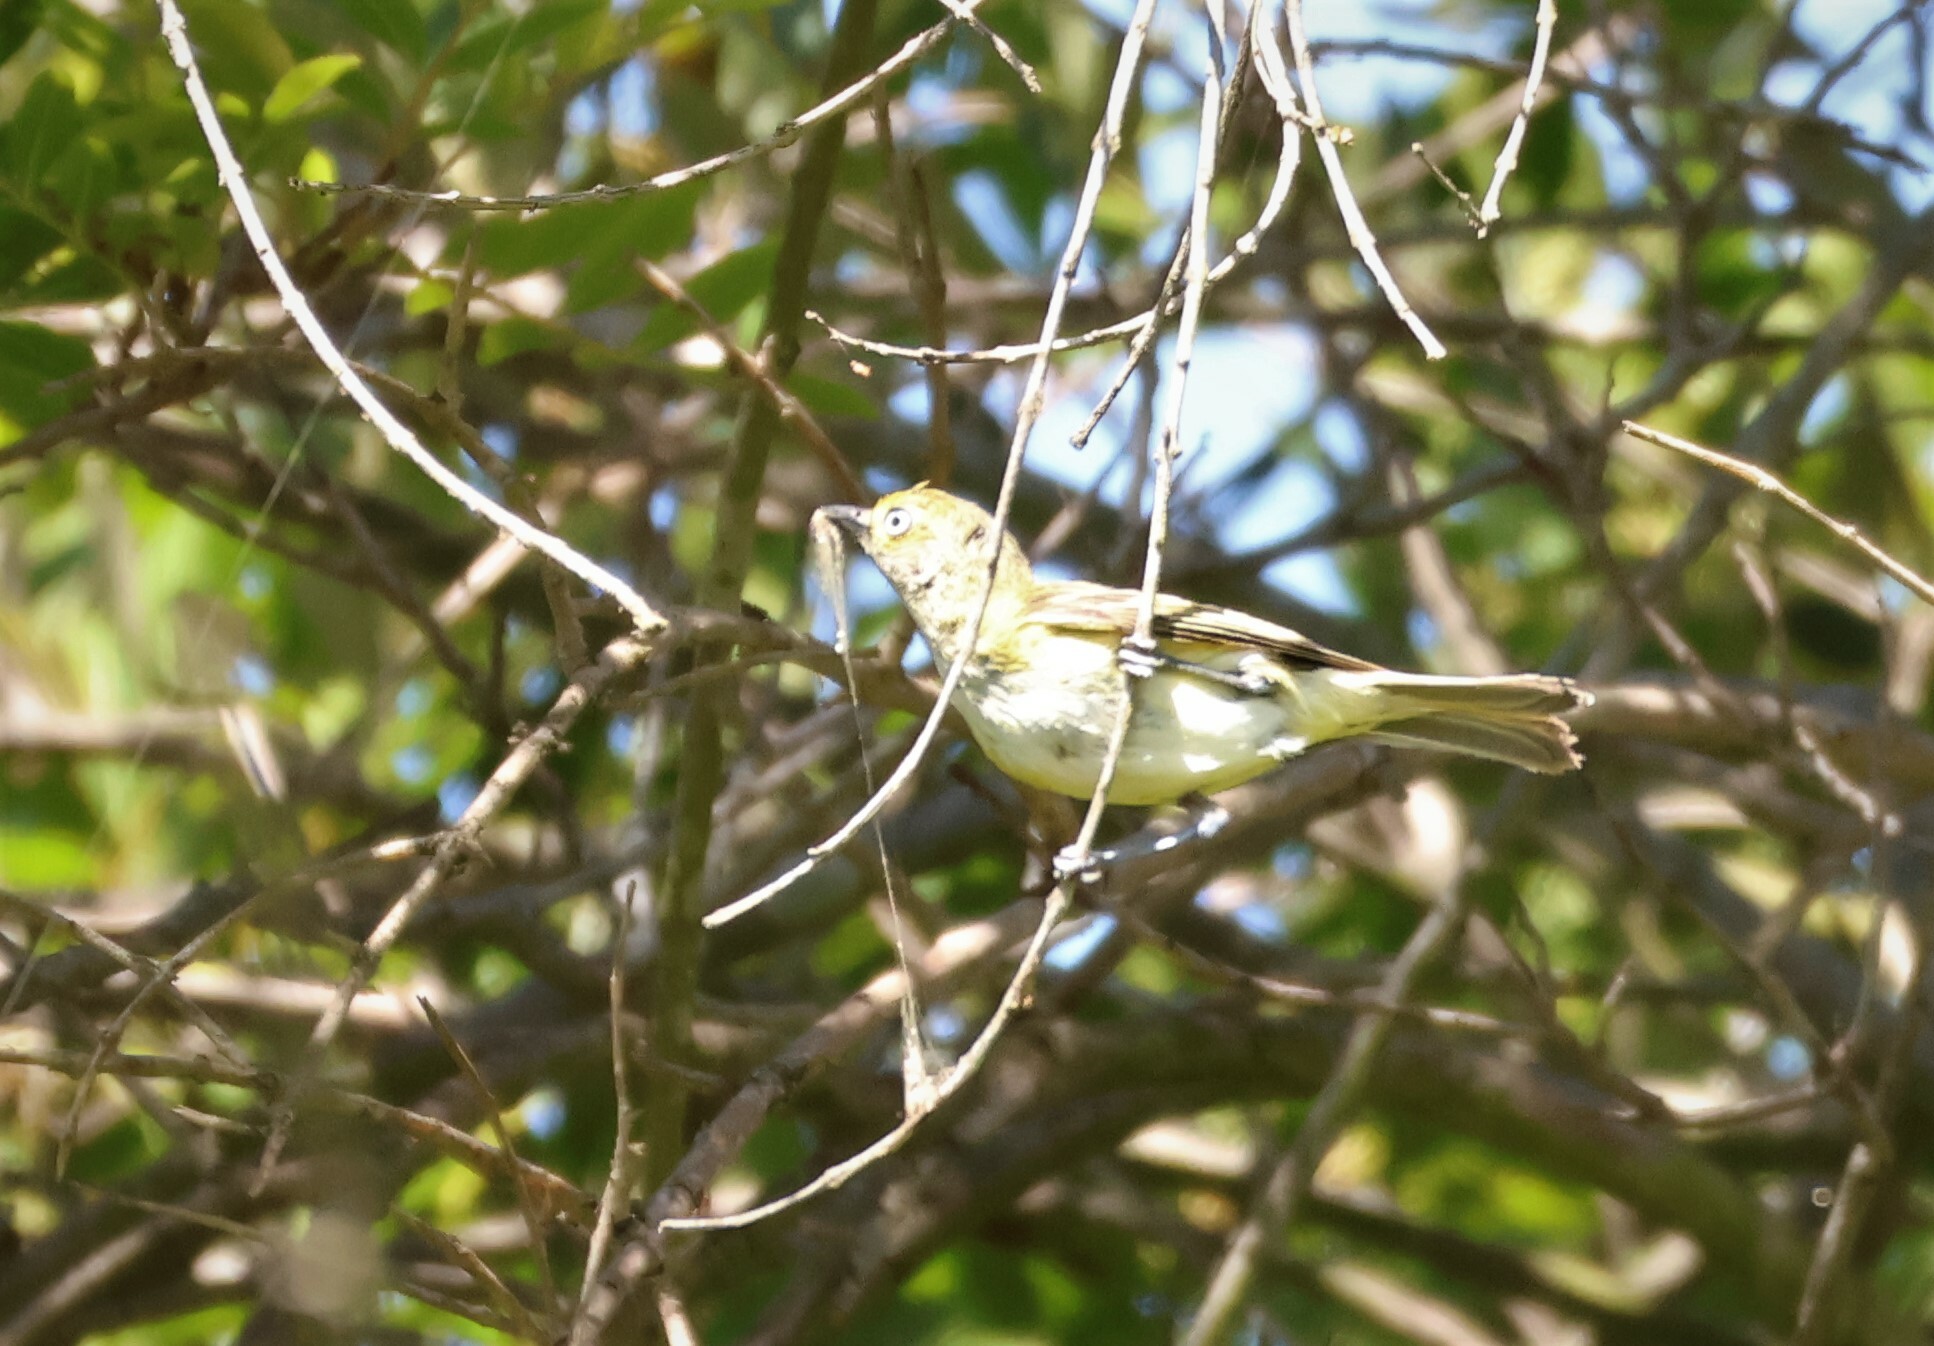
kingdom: Animalia
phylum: Chordata
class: Aves
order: Passeriformes
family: Vireonidae
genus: Vireo
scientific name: Vireo griseus
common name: White-eyed vireo
